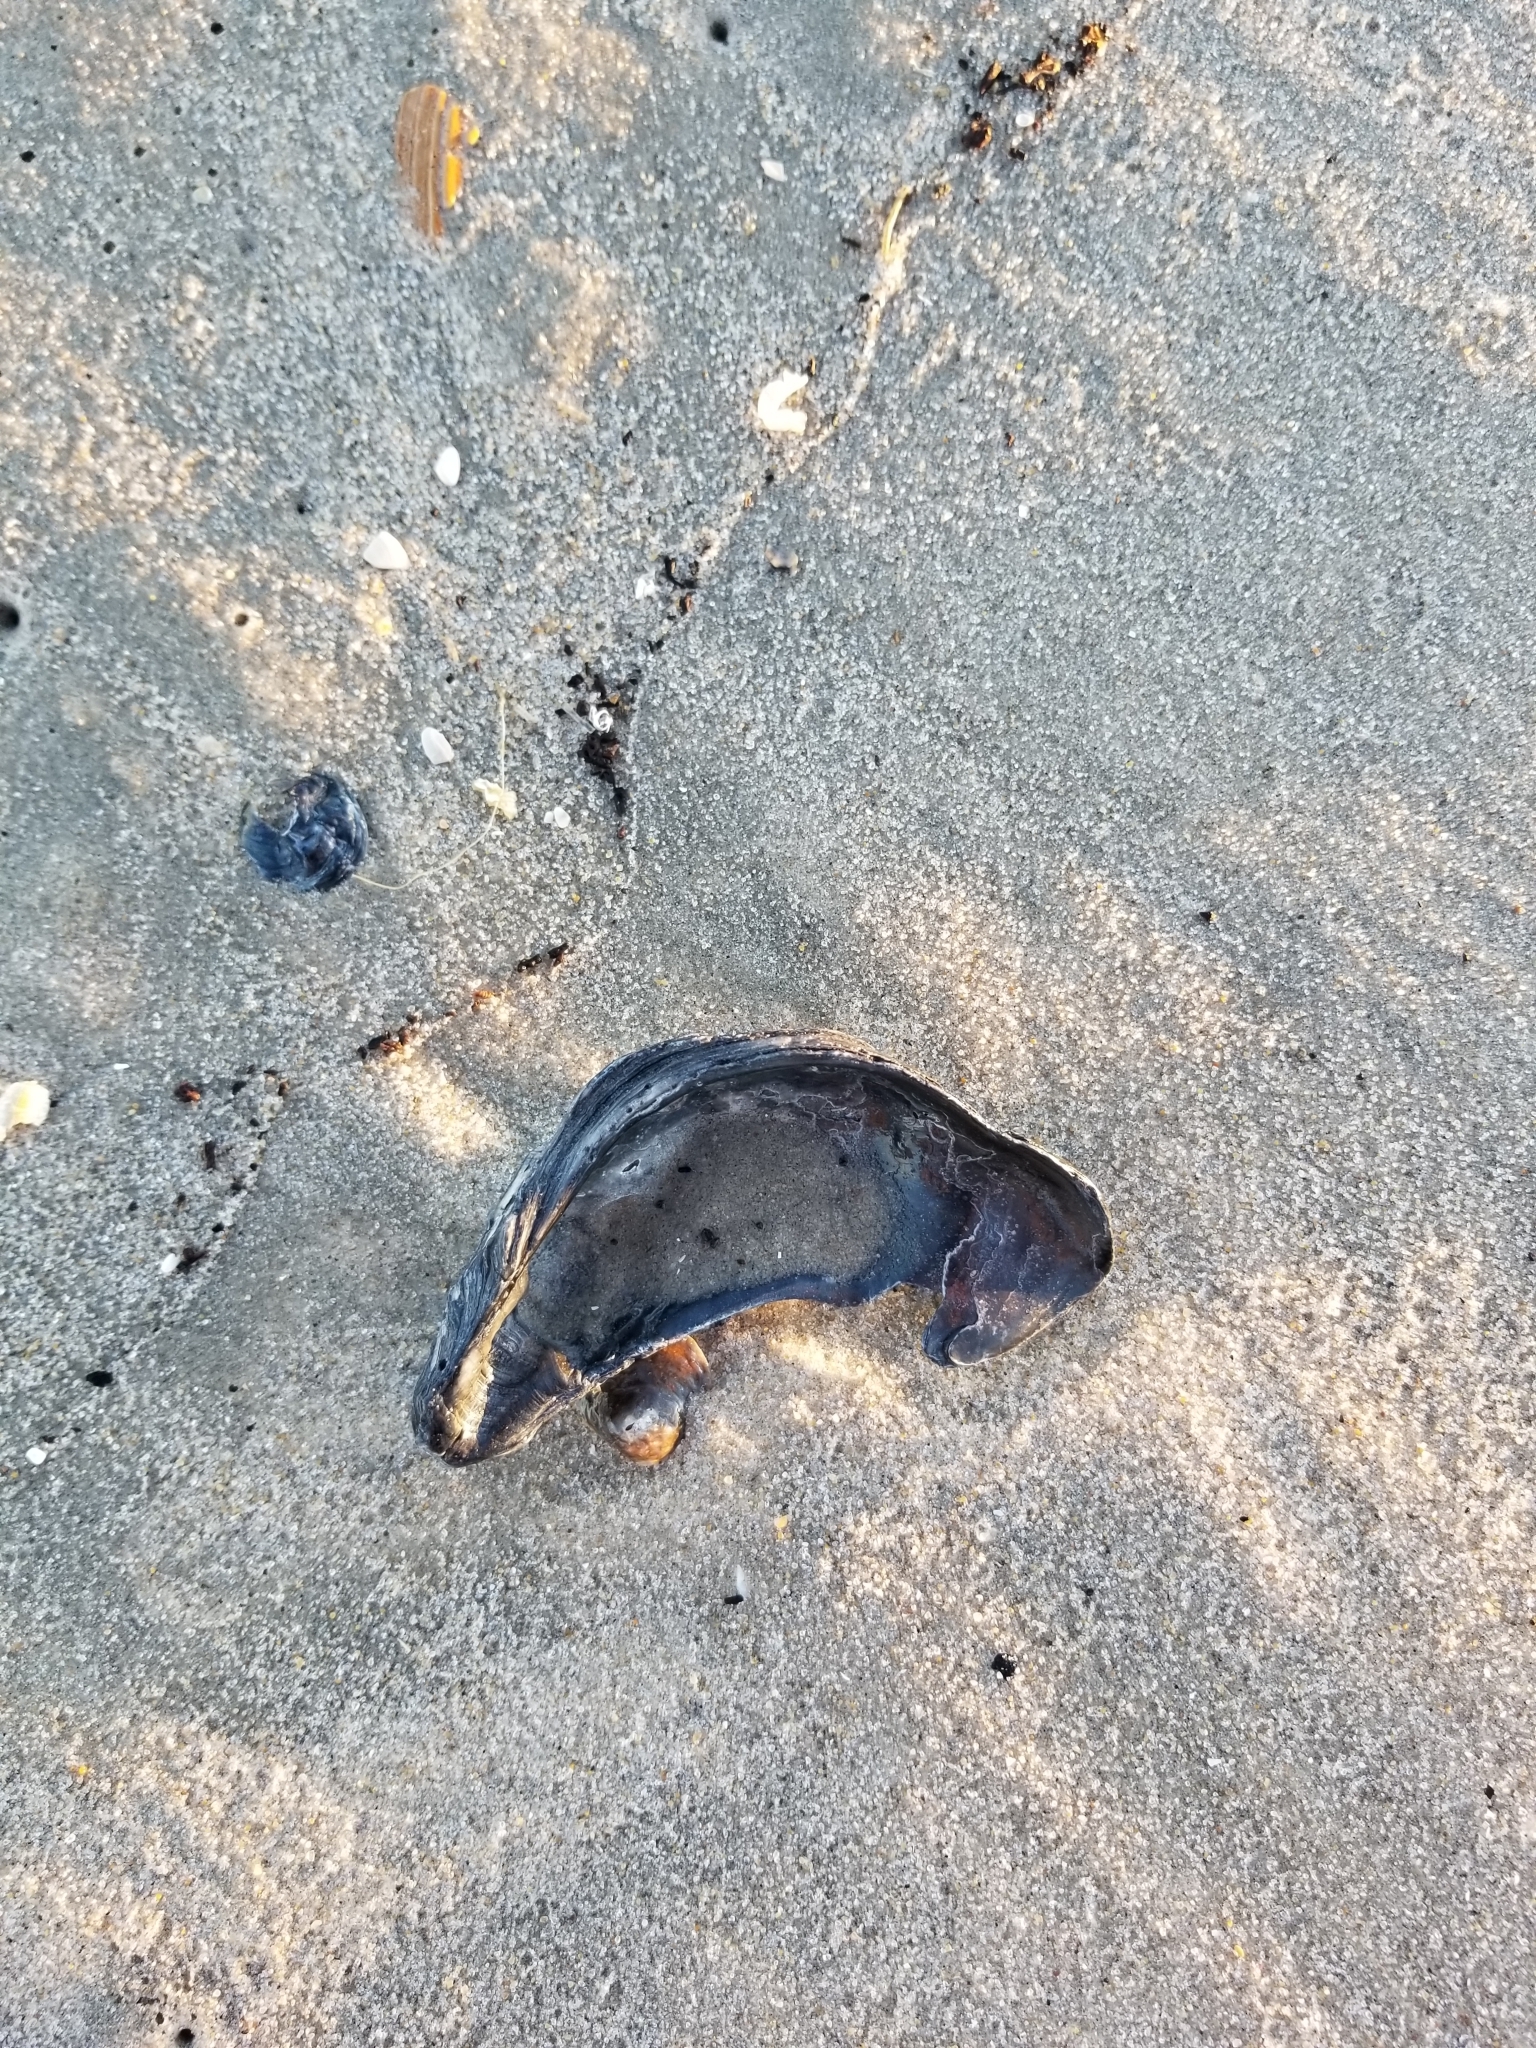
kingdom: Animalia
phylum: Mollusca
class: Bivalvia
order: Ostreida
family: Ostreidae
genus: Crassostrea
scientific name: Crassostrea virginica
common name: American oyster
